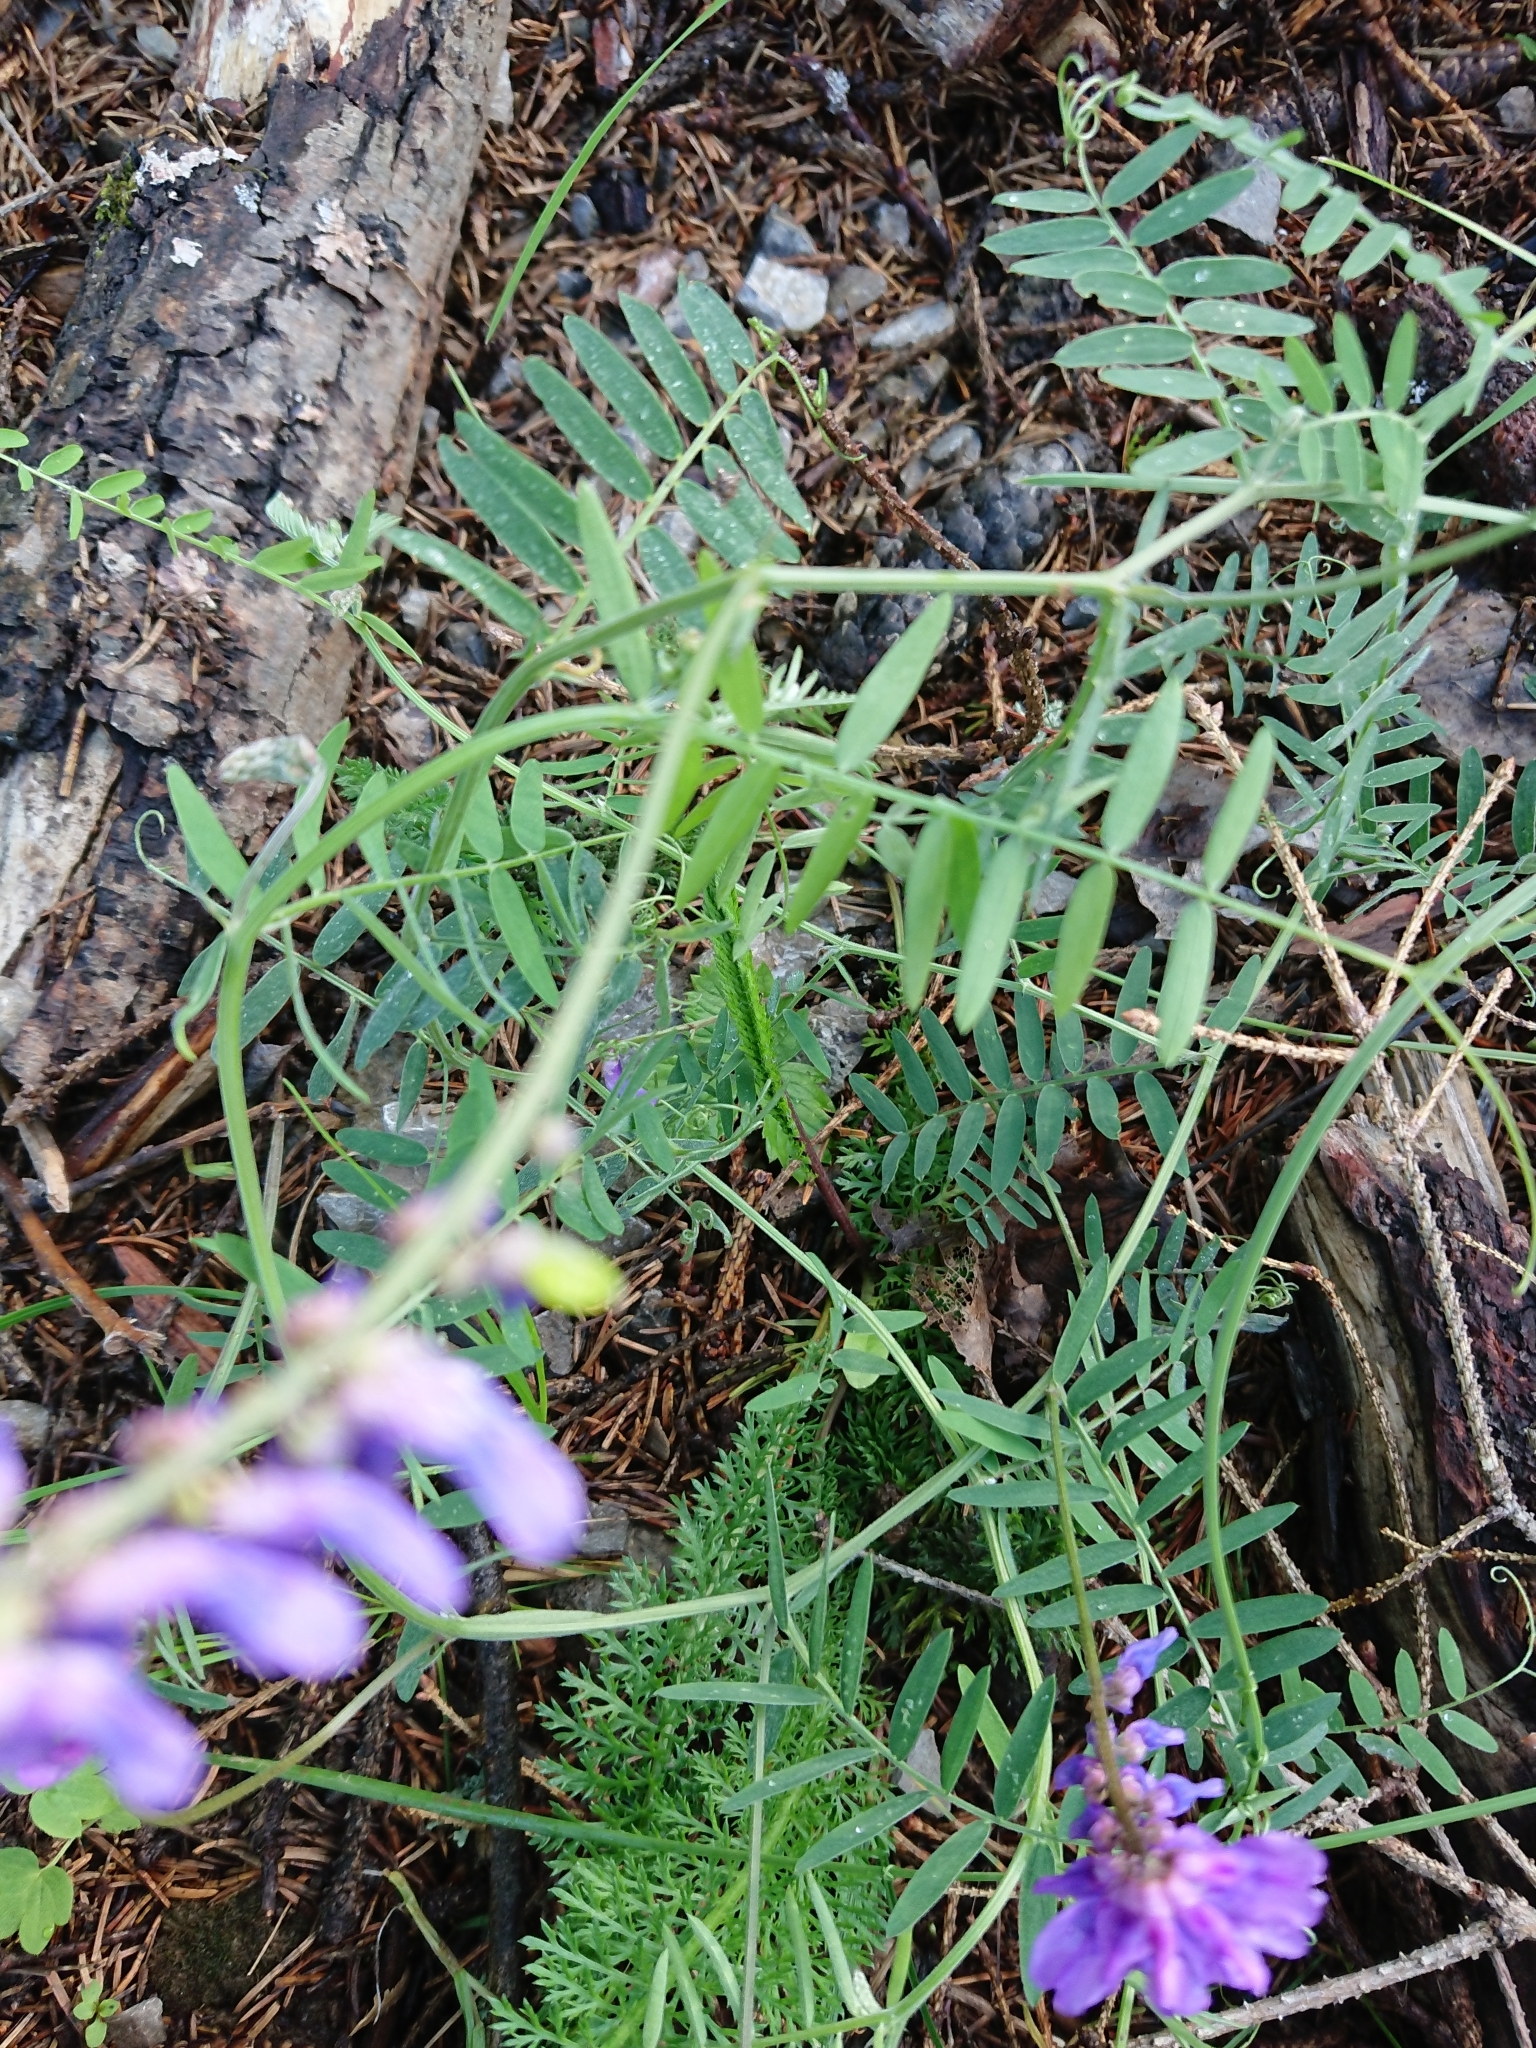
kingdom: Plantae
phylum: Tracheophyta
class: Magnoliopsida
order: Fabales
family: Fabaceae
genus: Vicia
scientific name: Vicia cracca
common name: Bird vetch
